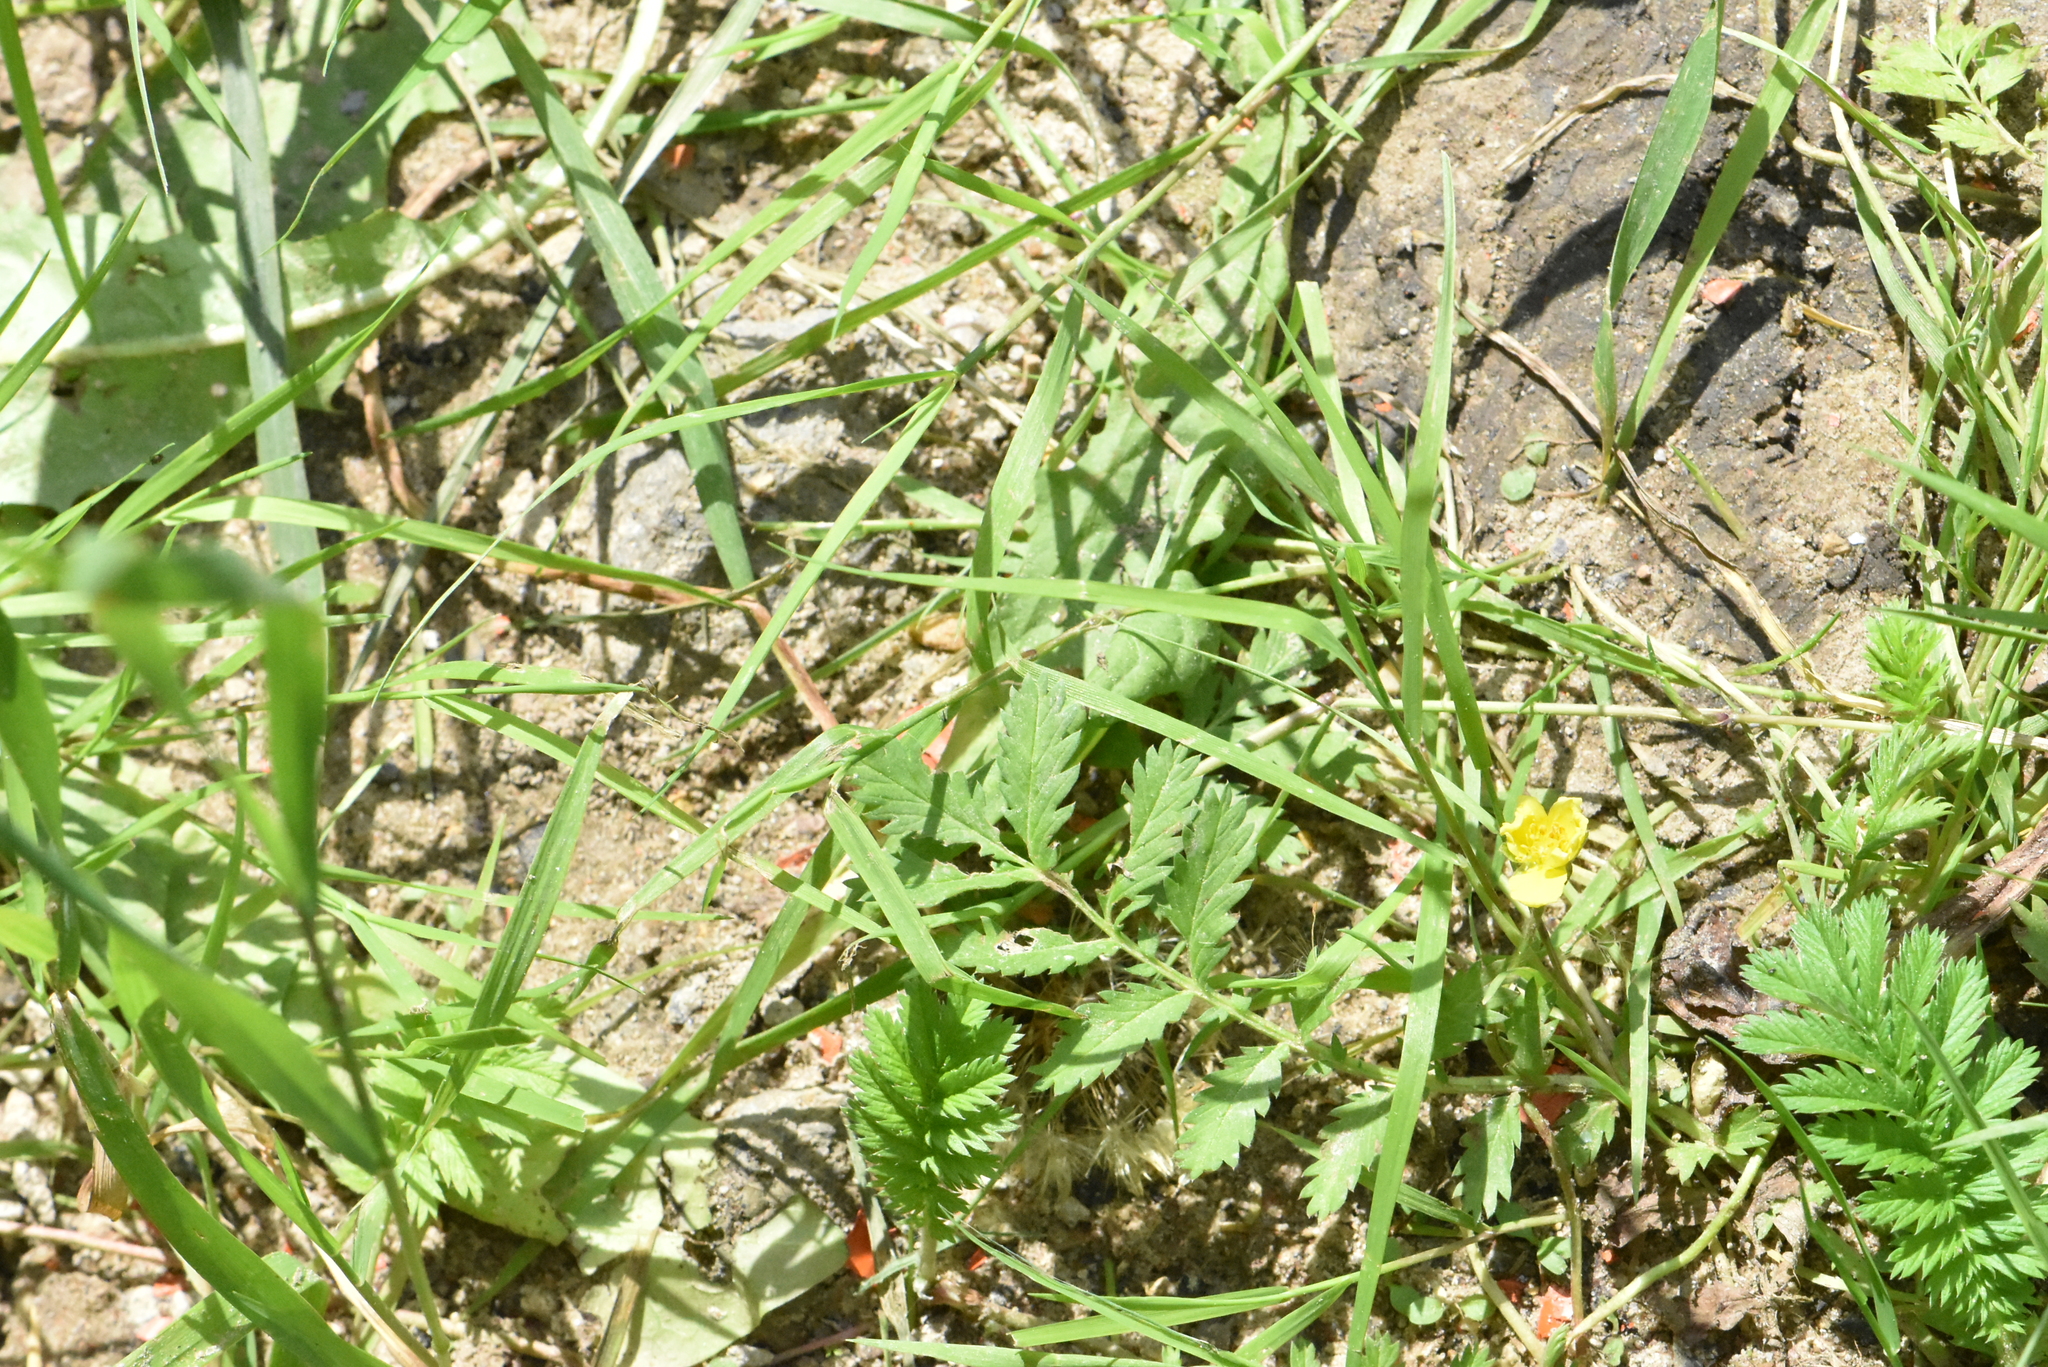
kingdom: Plantae
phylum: Tracheophyta
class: Magnoliopsida
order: Rosales
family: Rosaceae
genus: Argentina
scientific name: Argentina anserina
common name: Common silverweed
